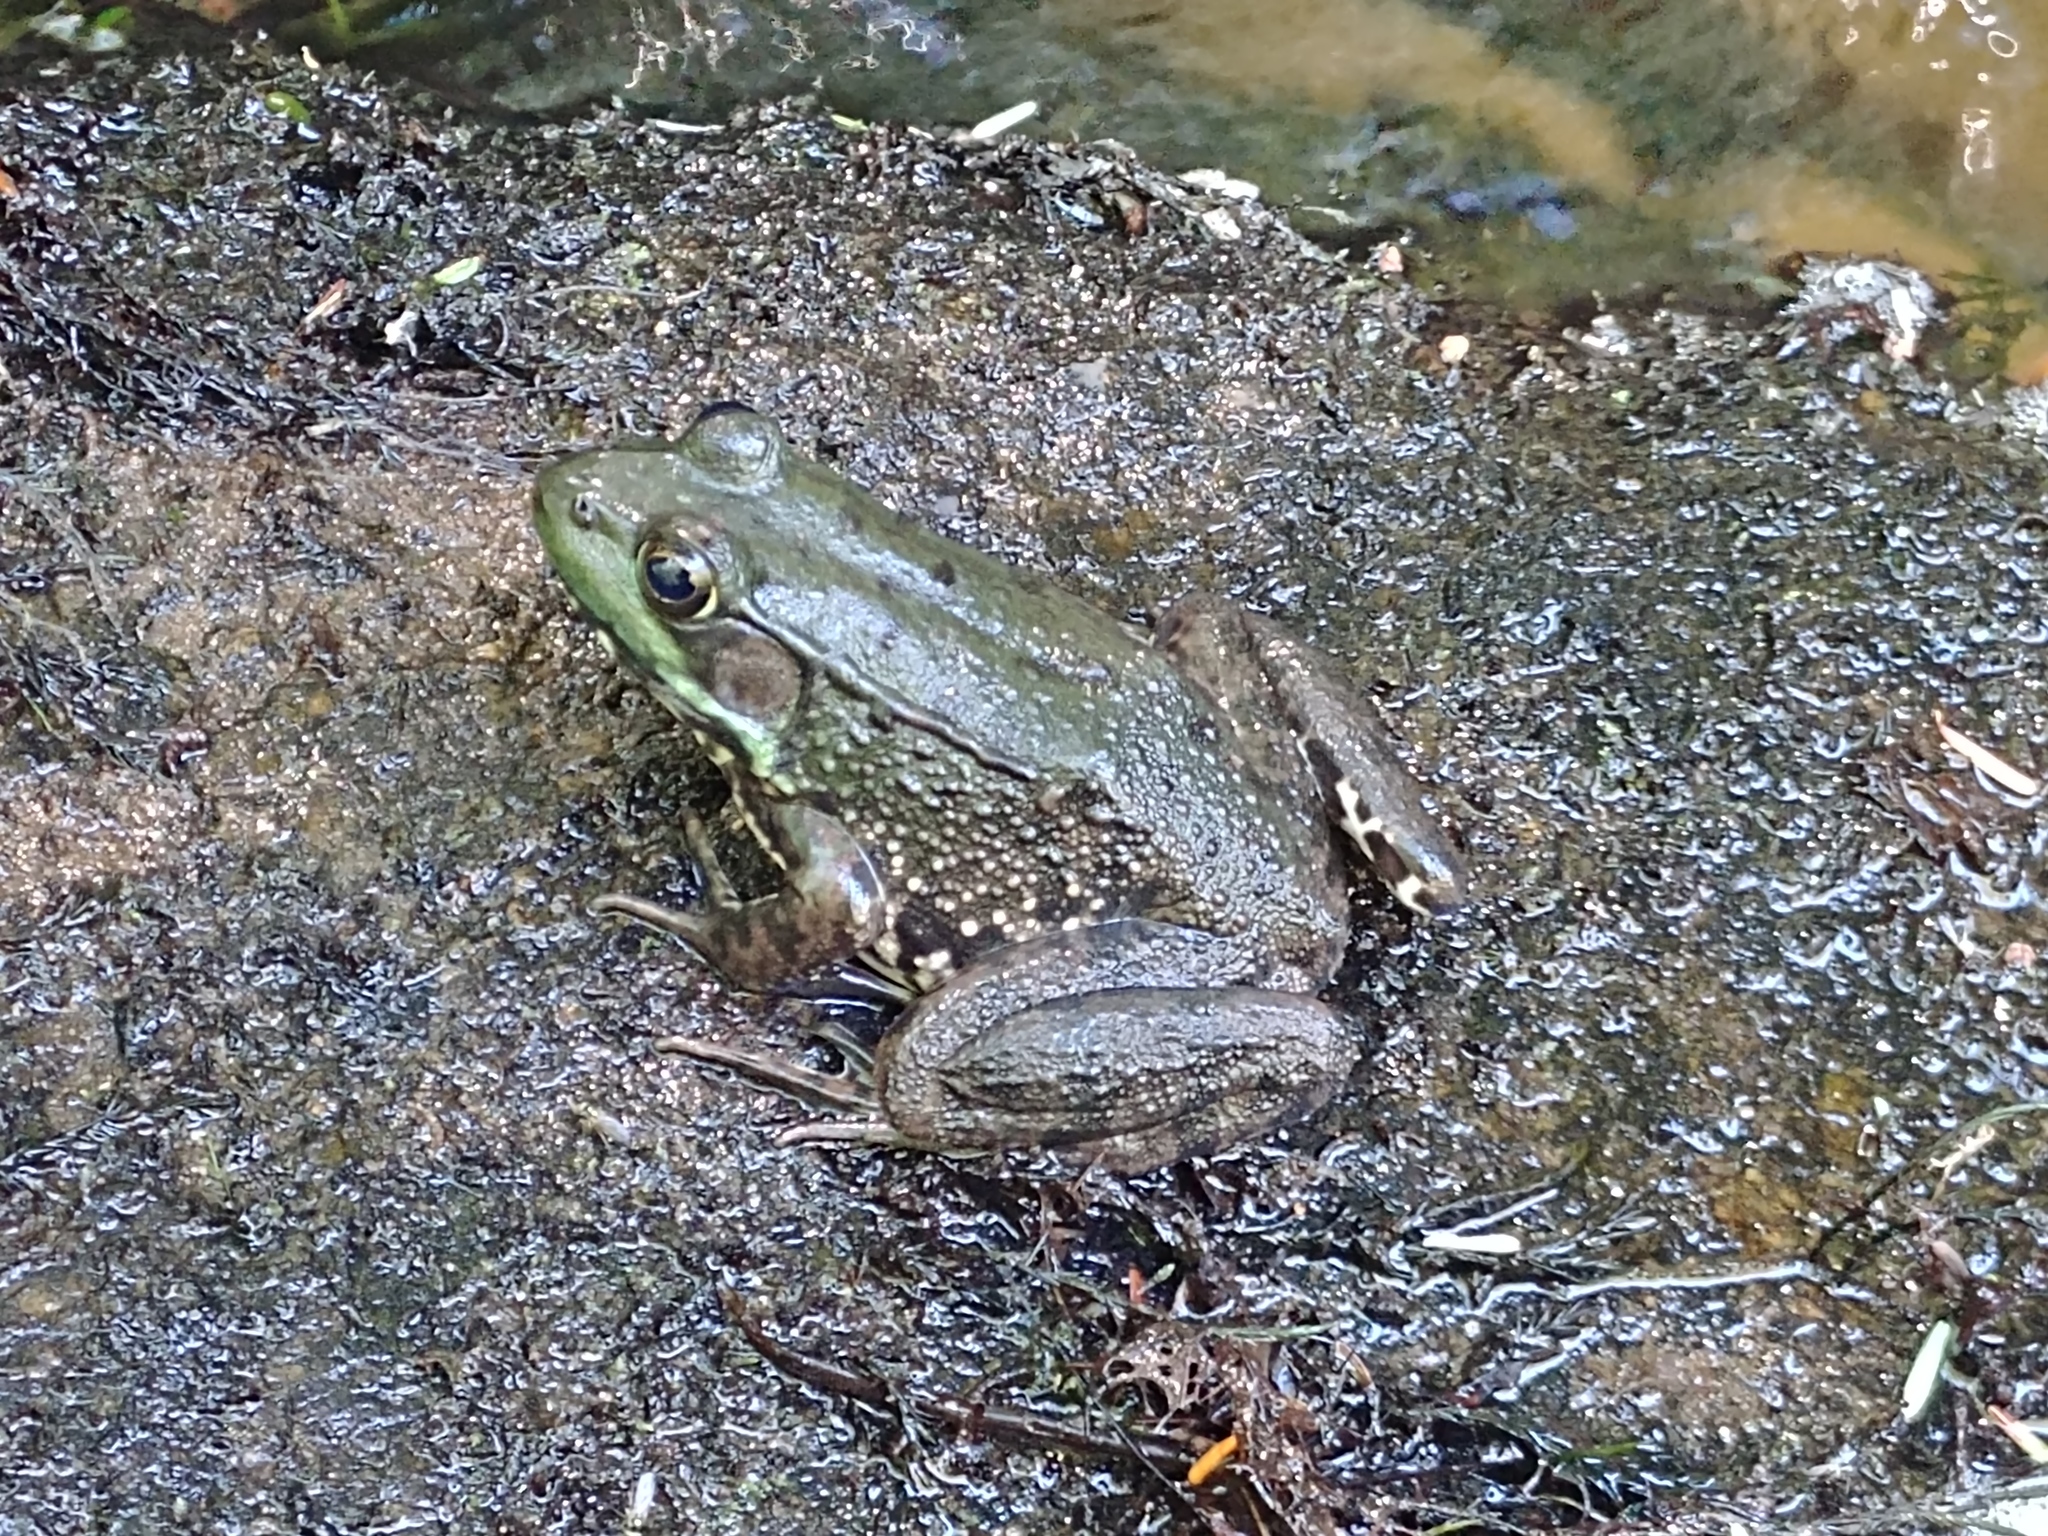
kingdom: Animalia
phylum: Chordata
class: Amphibia
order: Anura
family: Ranidae
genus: Lithobates
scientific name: Lithobates clamitans
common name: Green frog
